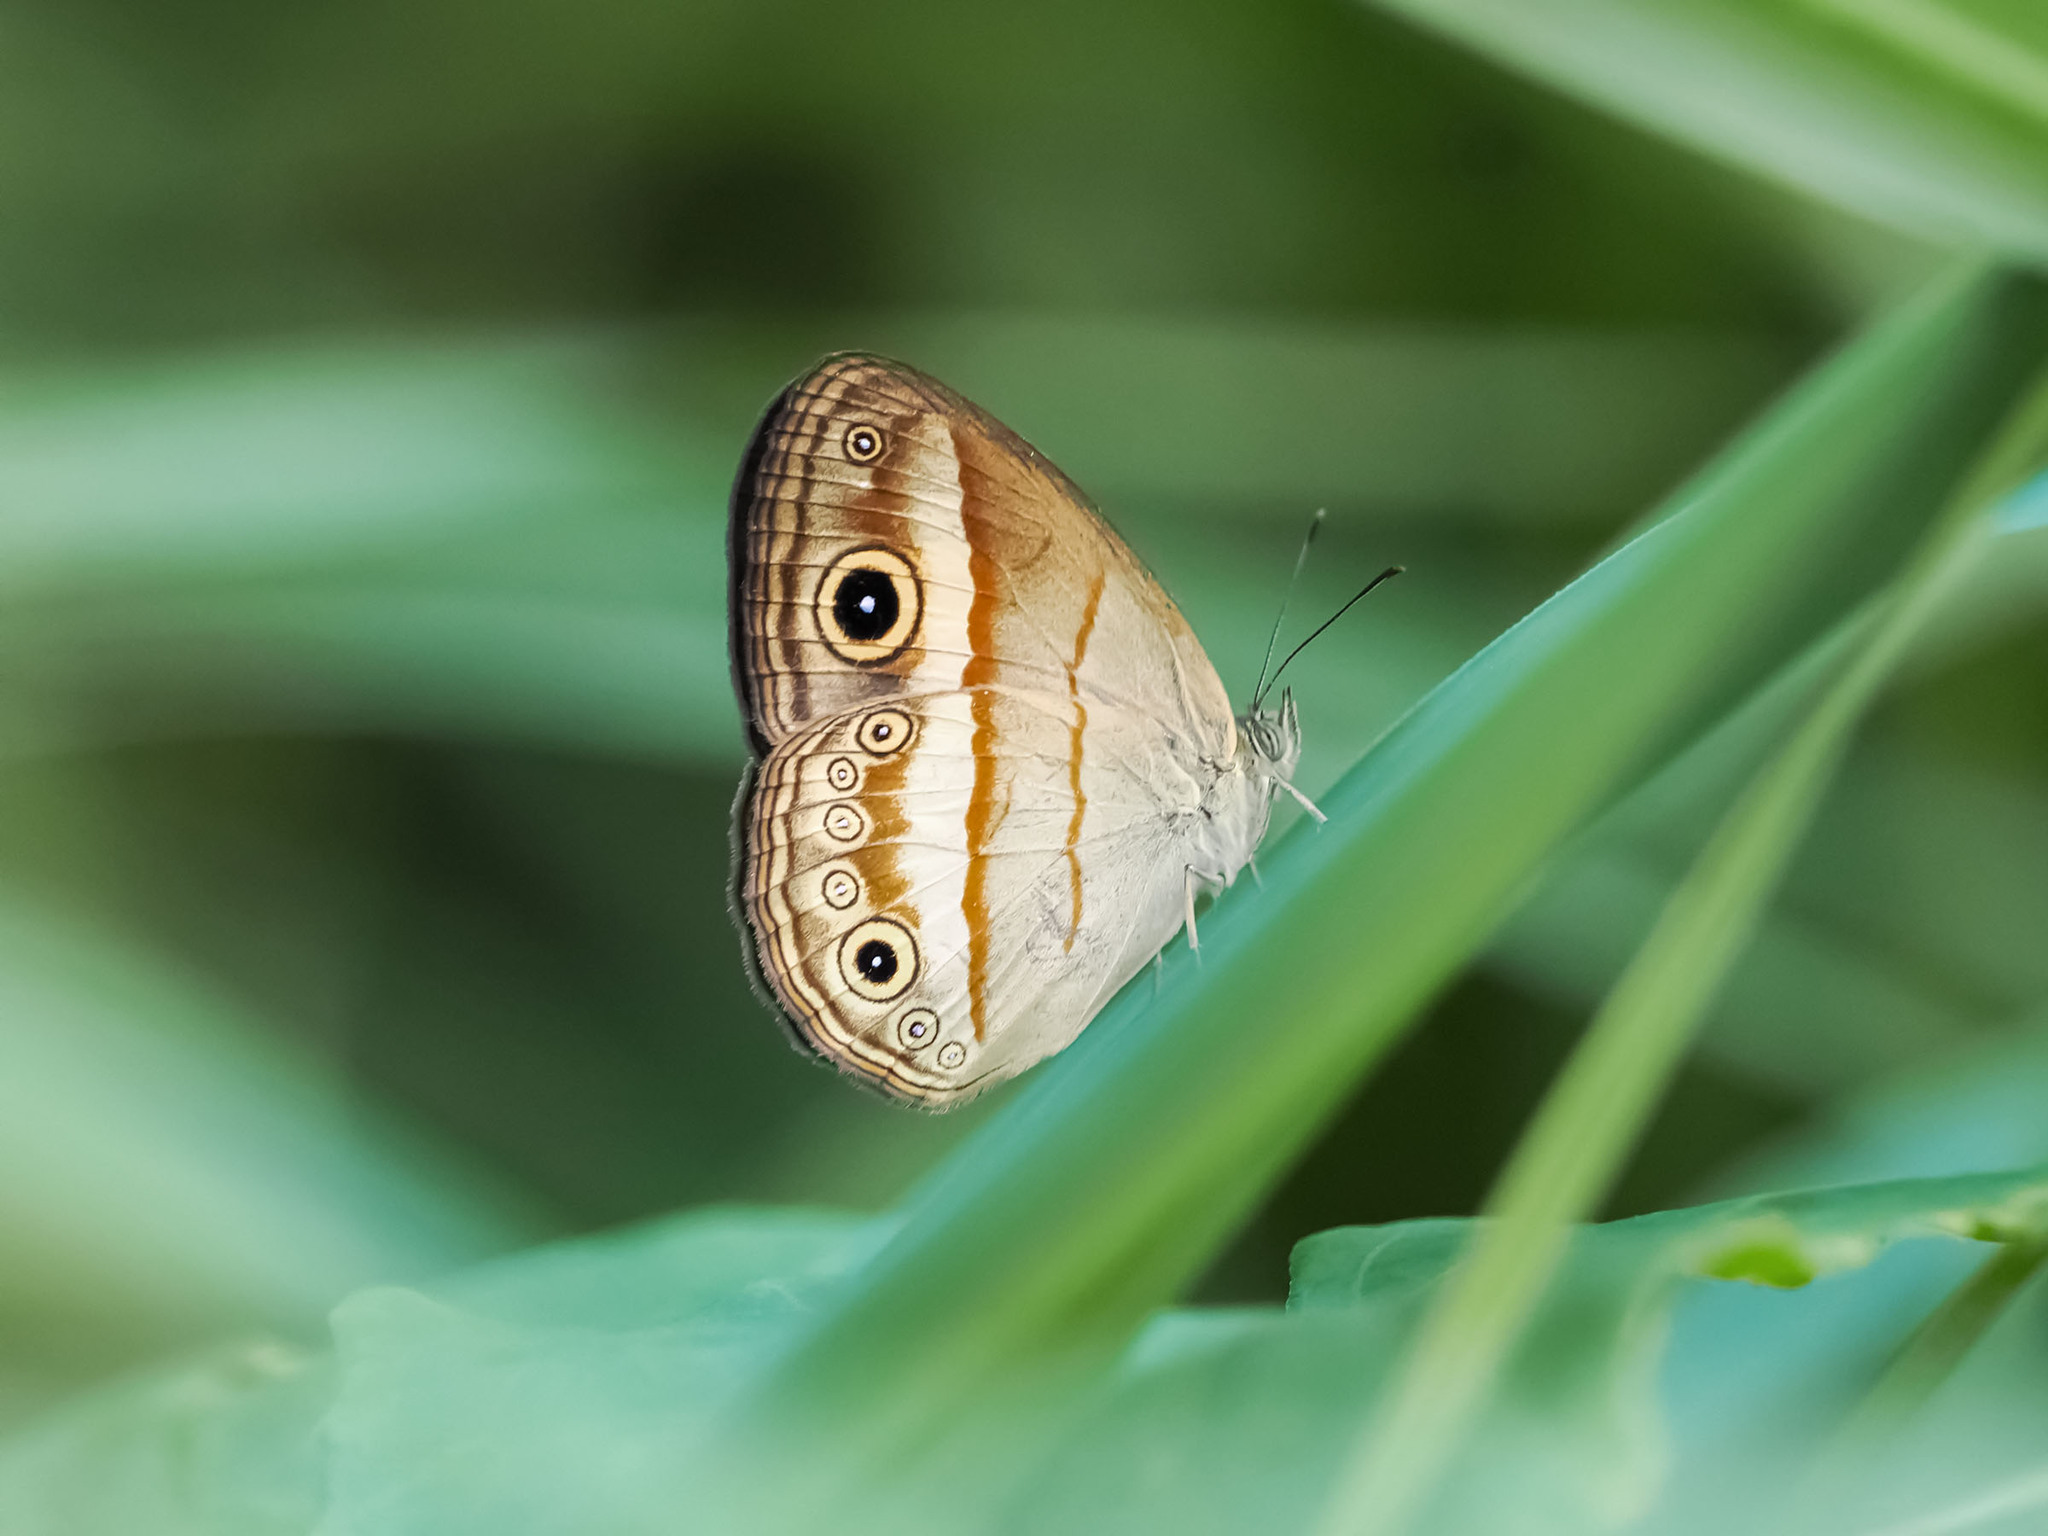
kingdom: Animalia
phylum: Arthropoda
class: Insecta
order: Lepidoptera
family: Nymphalidae
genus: Mycalesis
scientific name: Mycalesis ita
